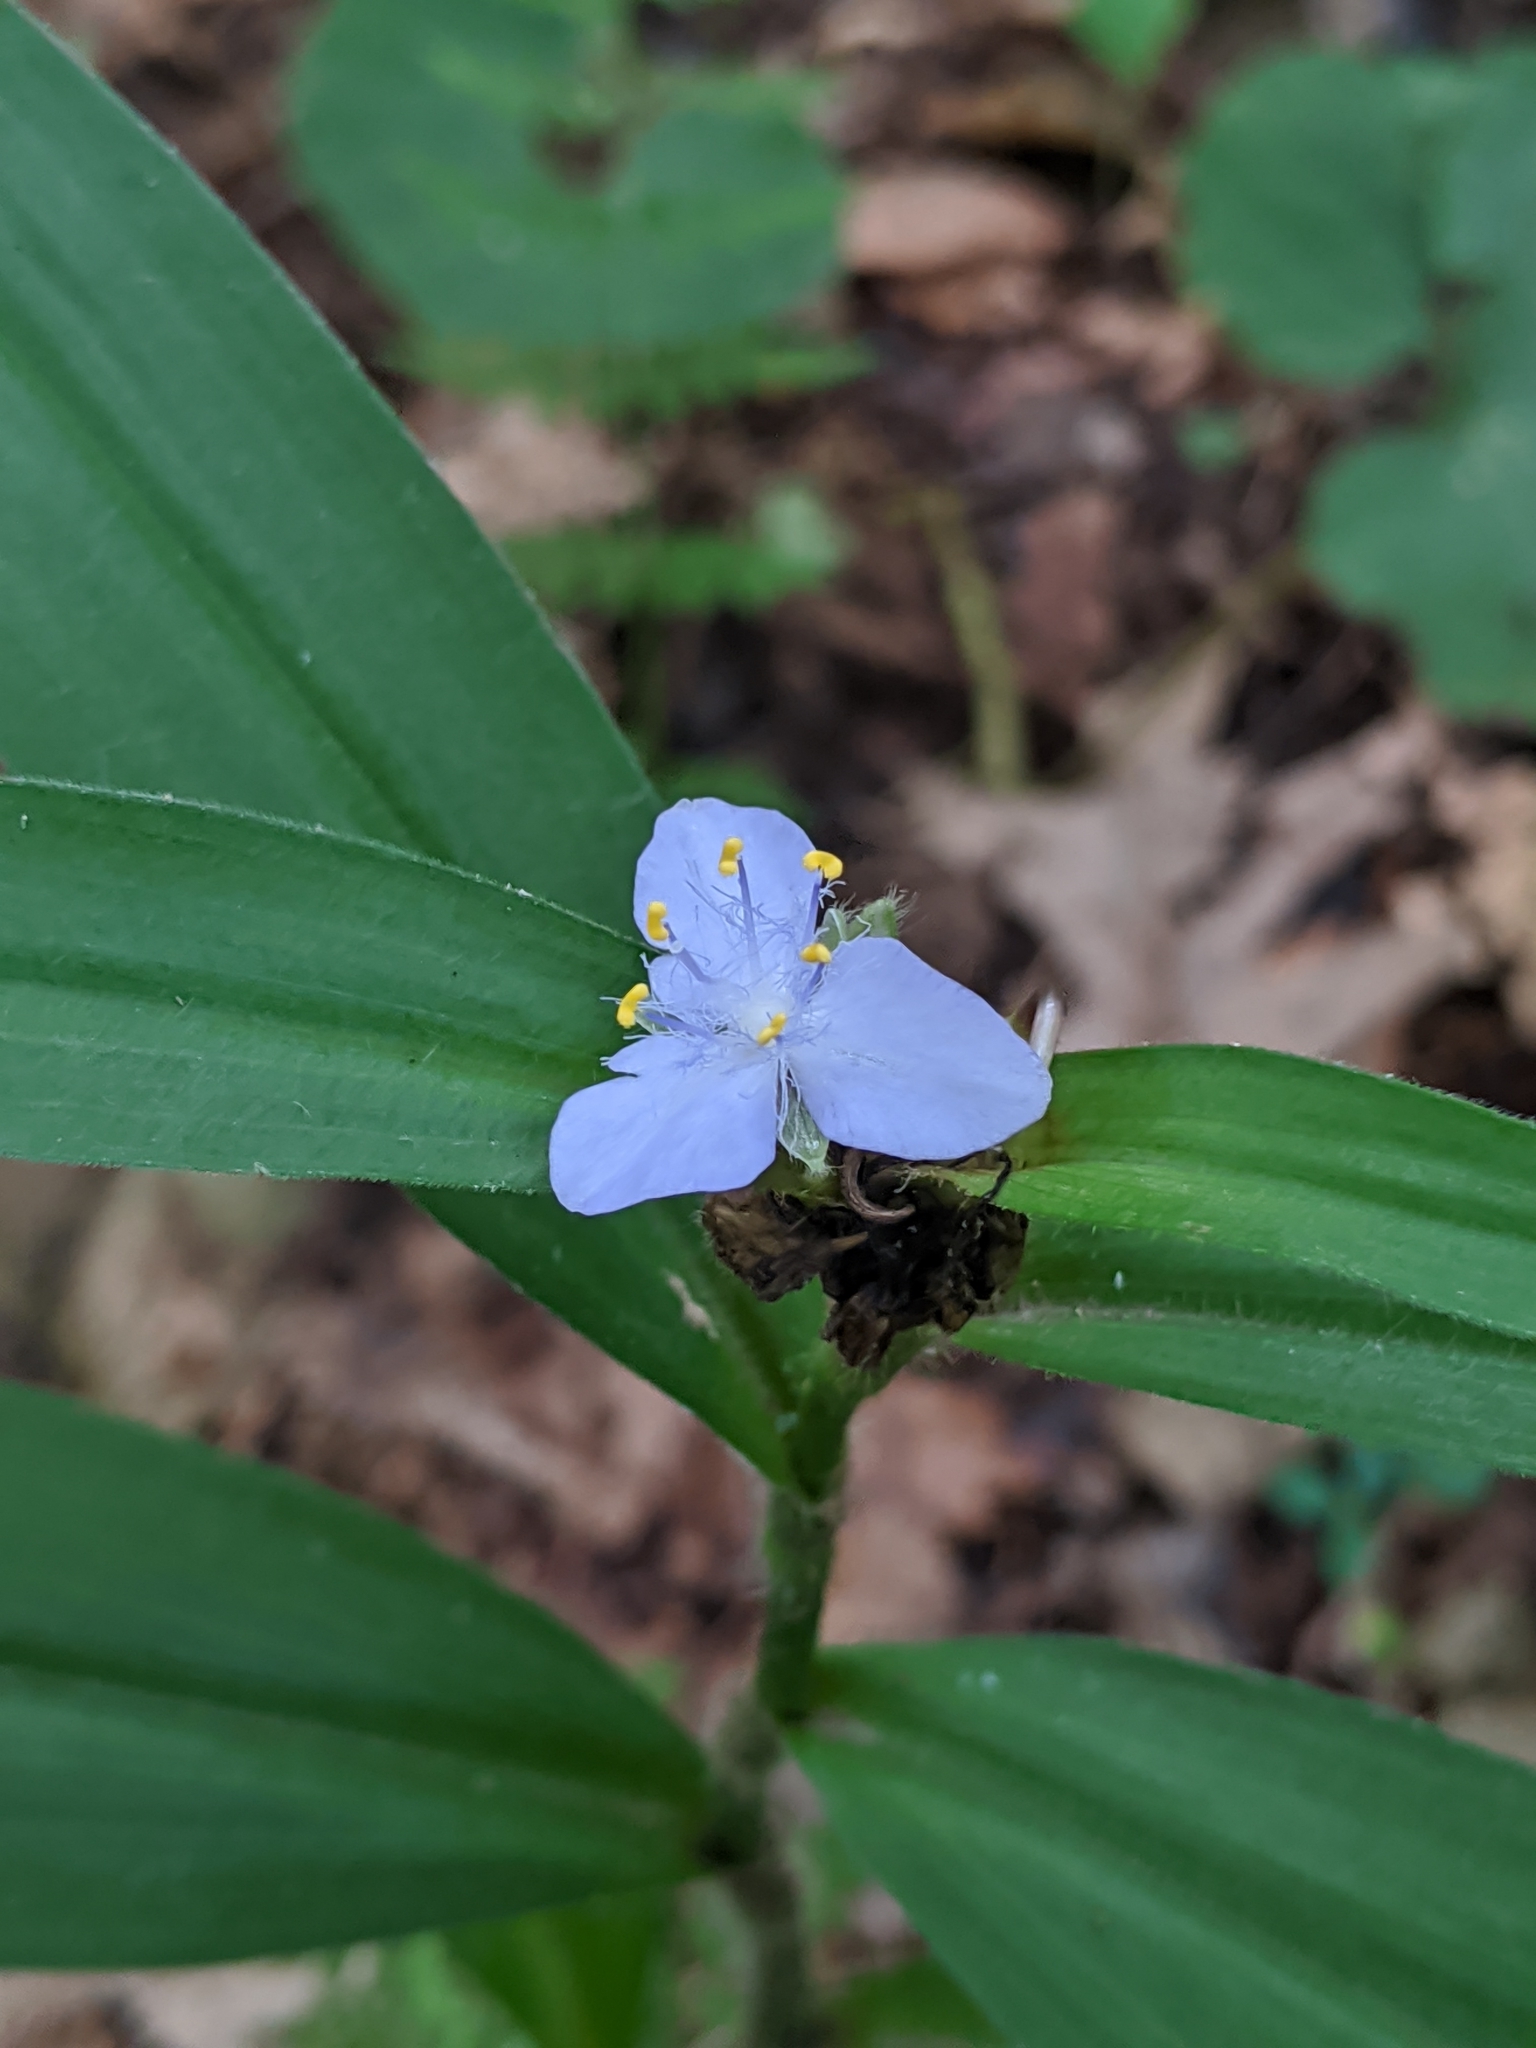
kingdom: Plantae
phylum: Tracheophyta
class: Liliopsida
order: Commelinales
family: Commelinaceae
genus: Tradescantia
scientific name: Tradescantia subaspera
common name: Wide-leaf spiderwort
